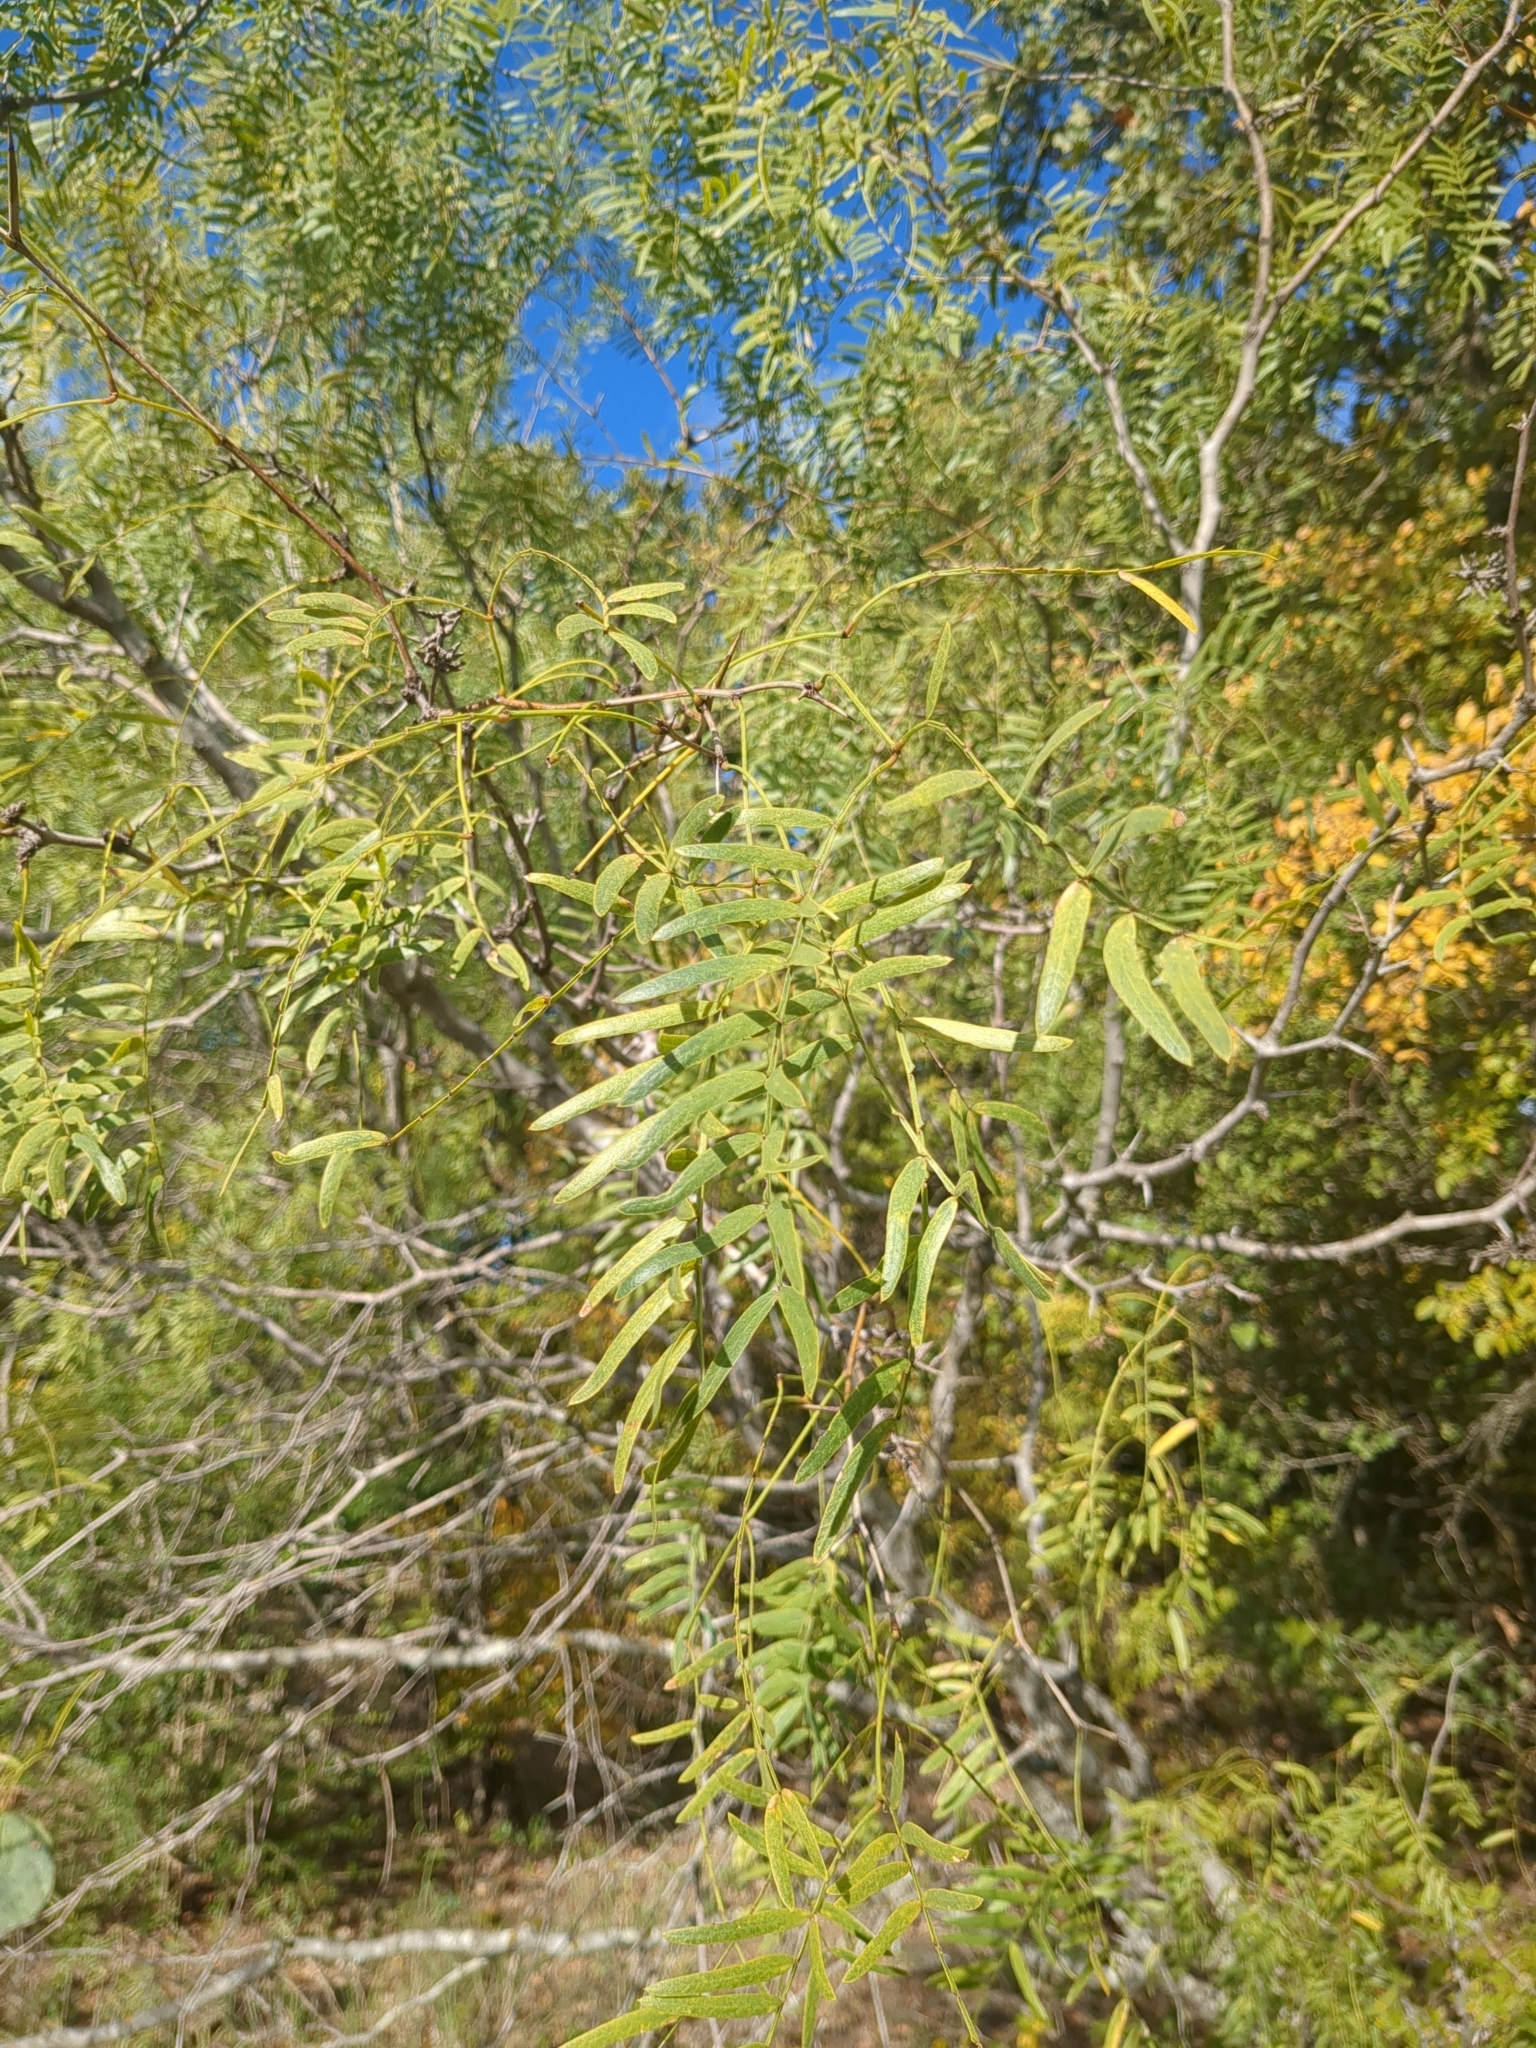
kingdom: Plantae
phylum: Tracheophyta
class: Magnoliopsida
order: Fabales
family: Fabaceae
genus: Prosopis
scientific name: Prosopis glandulosa
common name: Honey mesquite
